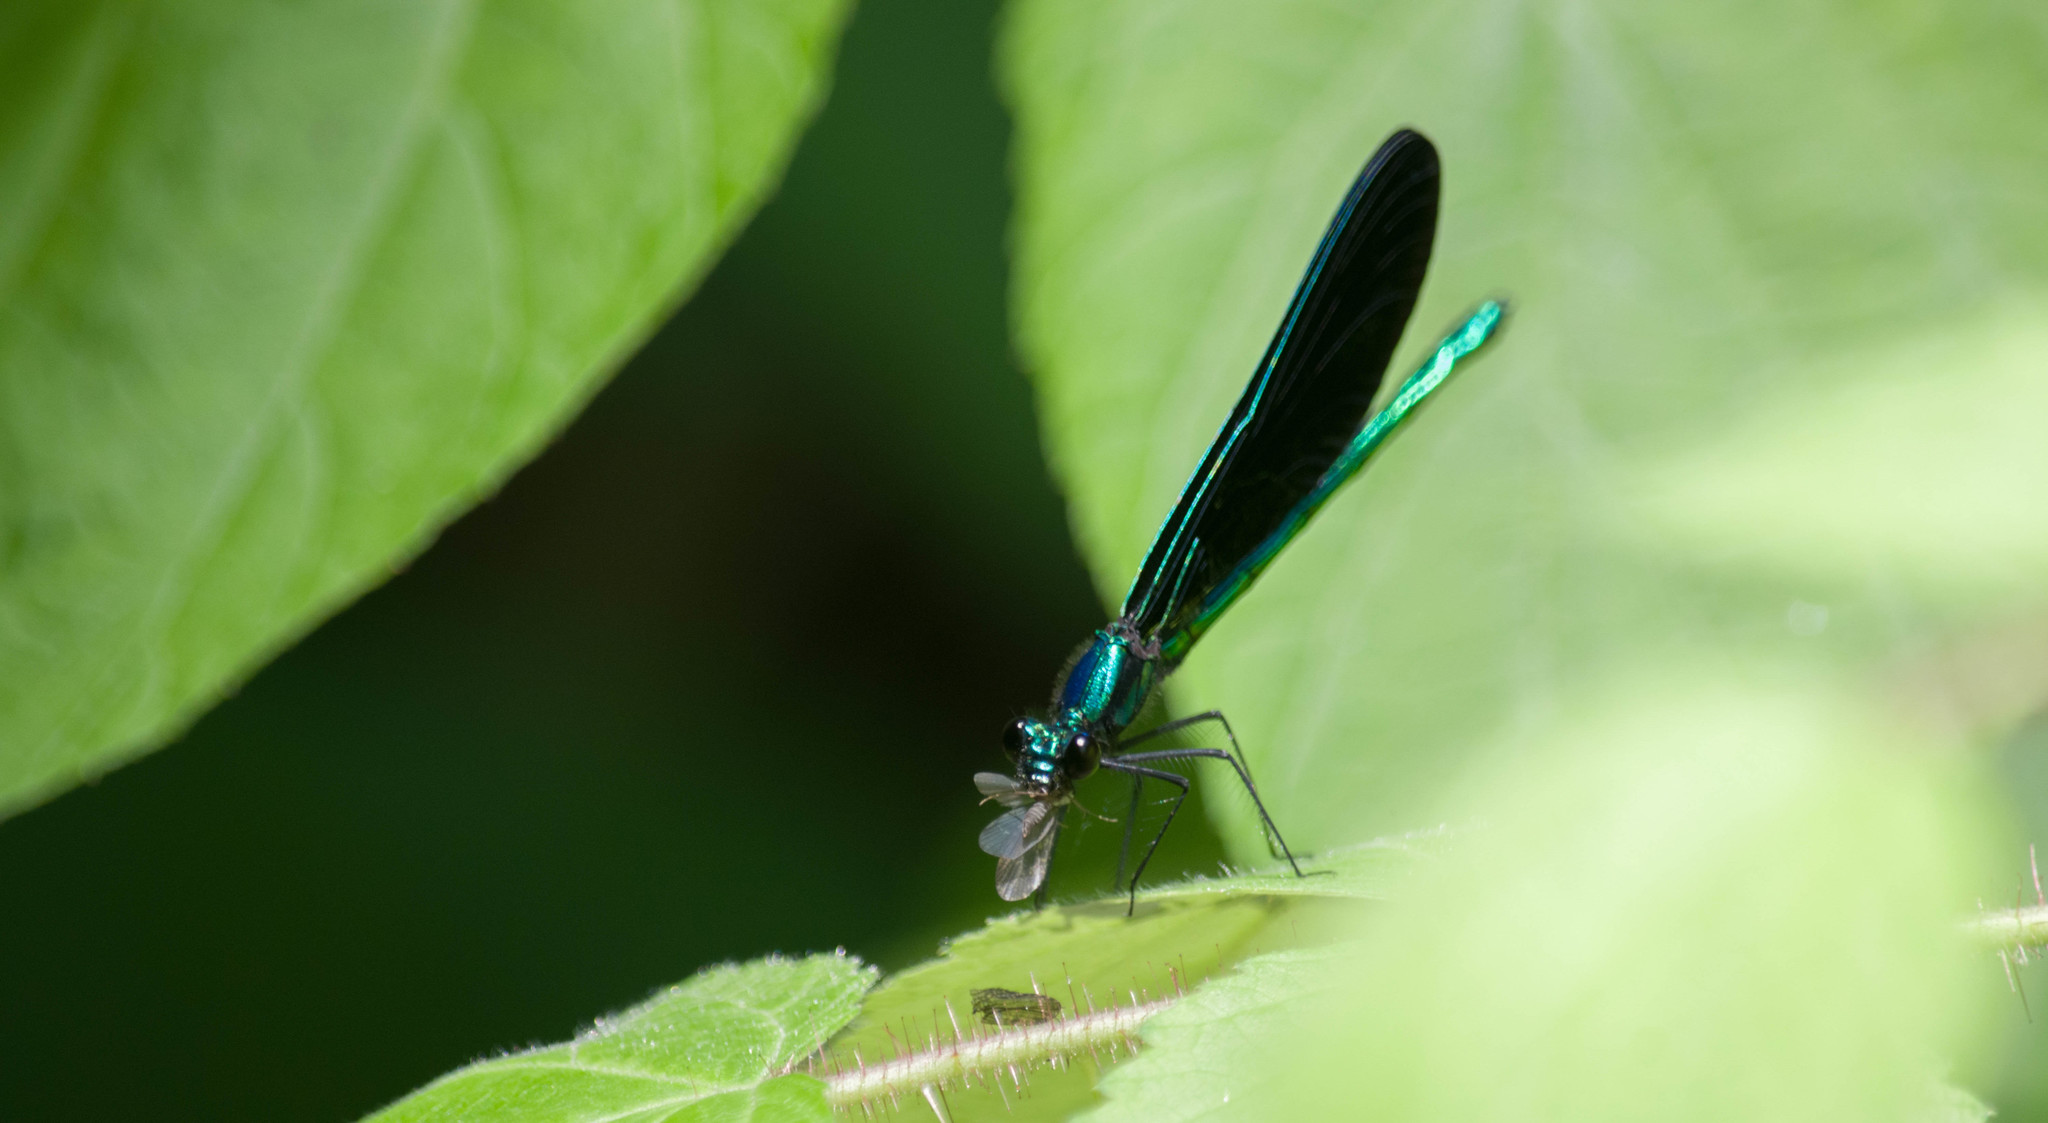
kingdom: Animalia
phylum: Arthropoda
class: Insecta
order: Odonata
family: Calopterygidae
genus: Calopteryx
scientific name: Calopteryx maculata
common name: Ebony jewelwing
